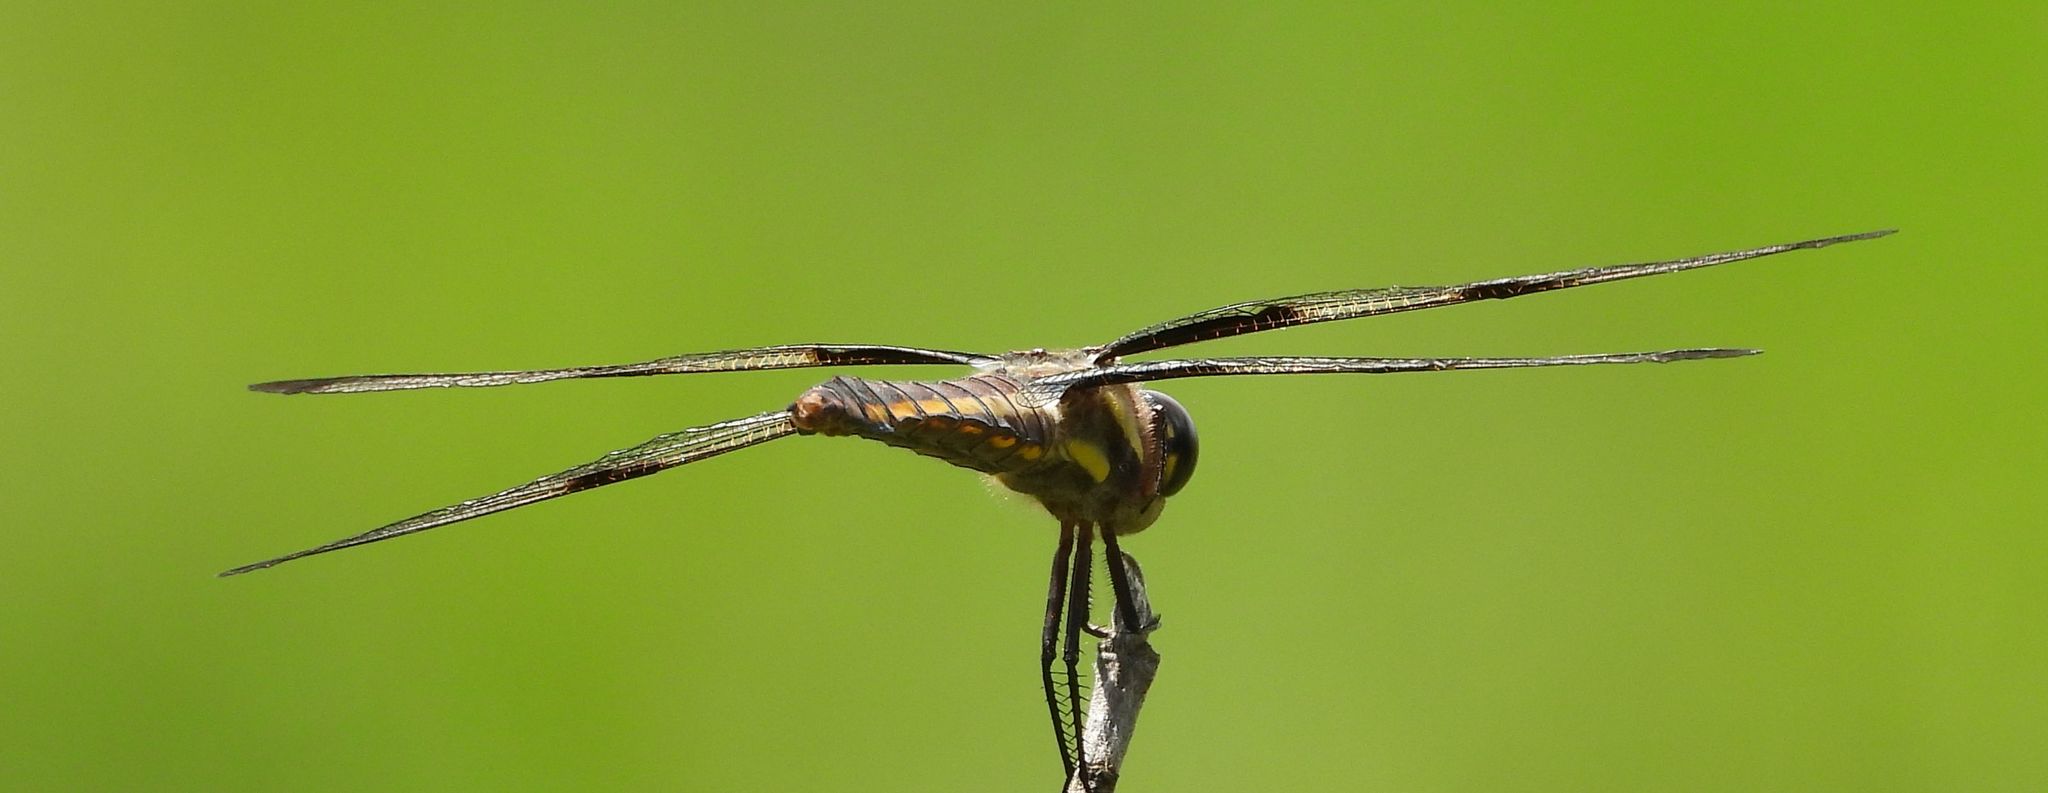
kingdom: Animalia
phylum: Arthropoda
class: Insecta
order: Odonata
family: Libellulidae
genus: Libellula
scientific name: Libellula pulchella
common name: Twelve-spotted skimmer
